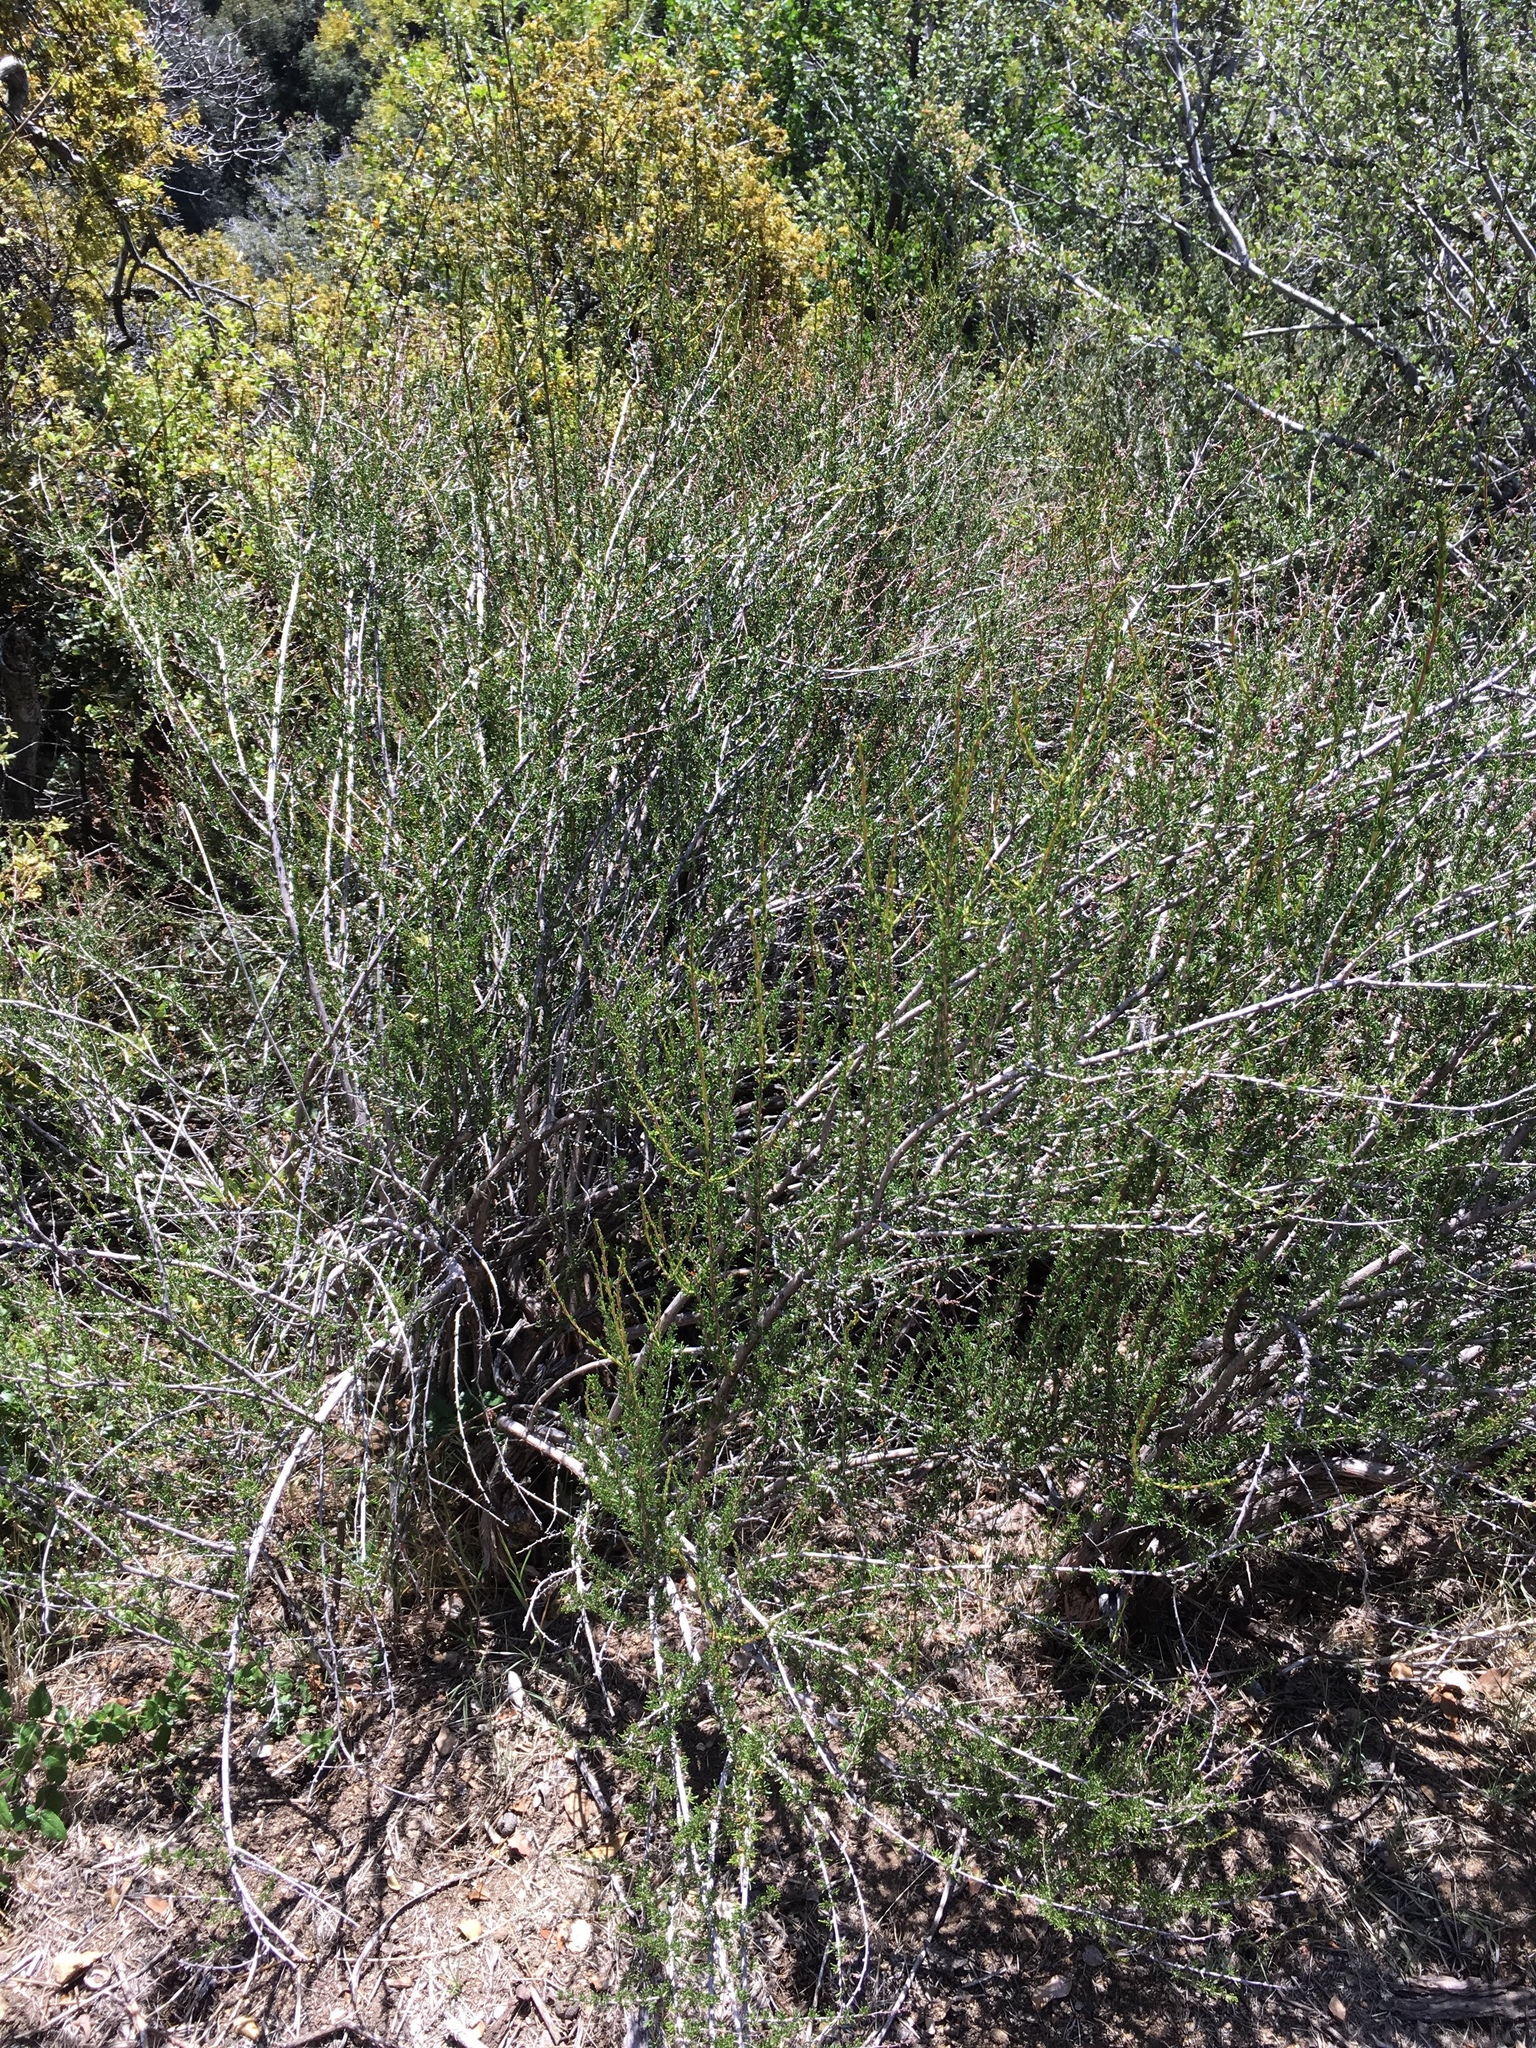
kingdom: Plantae
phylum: Tracheophyta
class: Magnoliopsida
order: Rosales
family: Rosaceae
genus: Adenostoma
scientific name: Adenostoma fasciculatum
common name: Chamise
